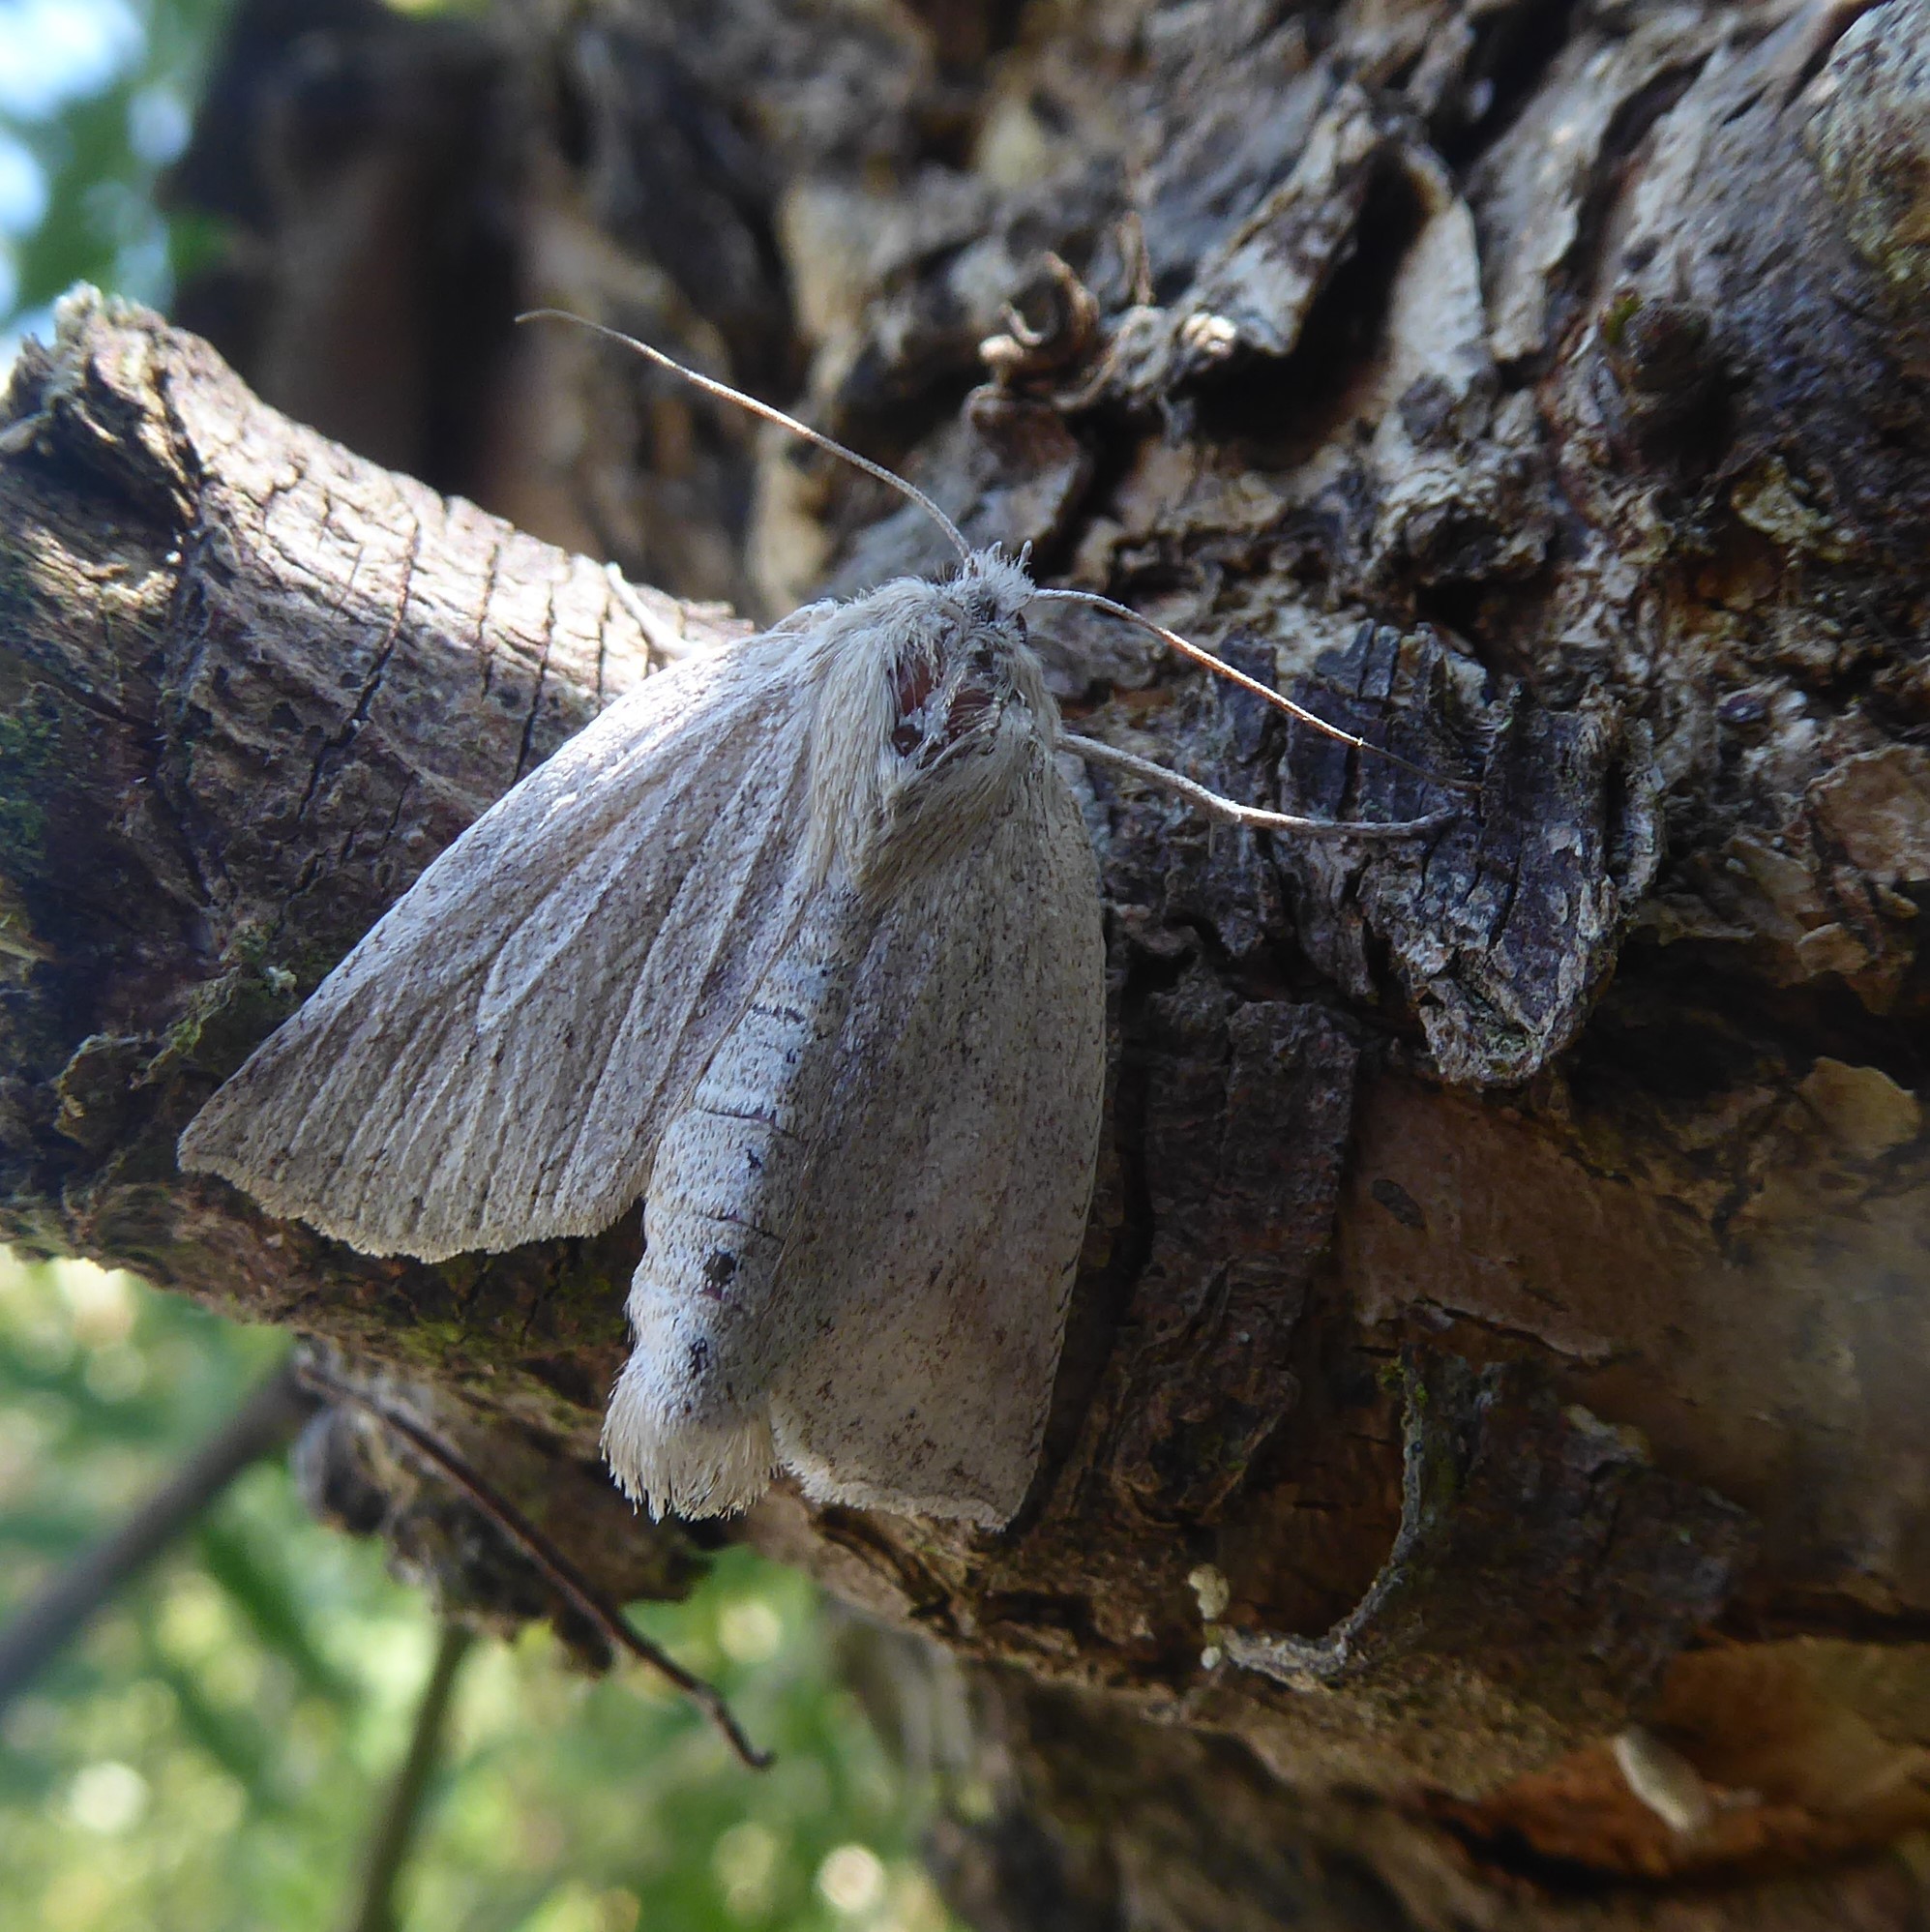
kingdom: Animalia
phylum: Arthropoda
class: Insecta
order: Lepidoptera
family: Geometridae
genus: Declana
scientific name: Declana leptomera
